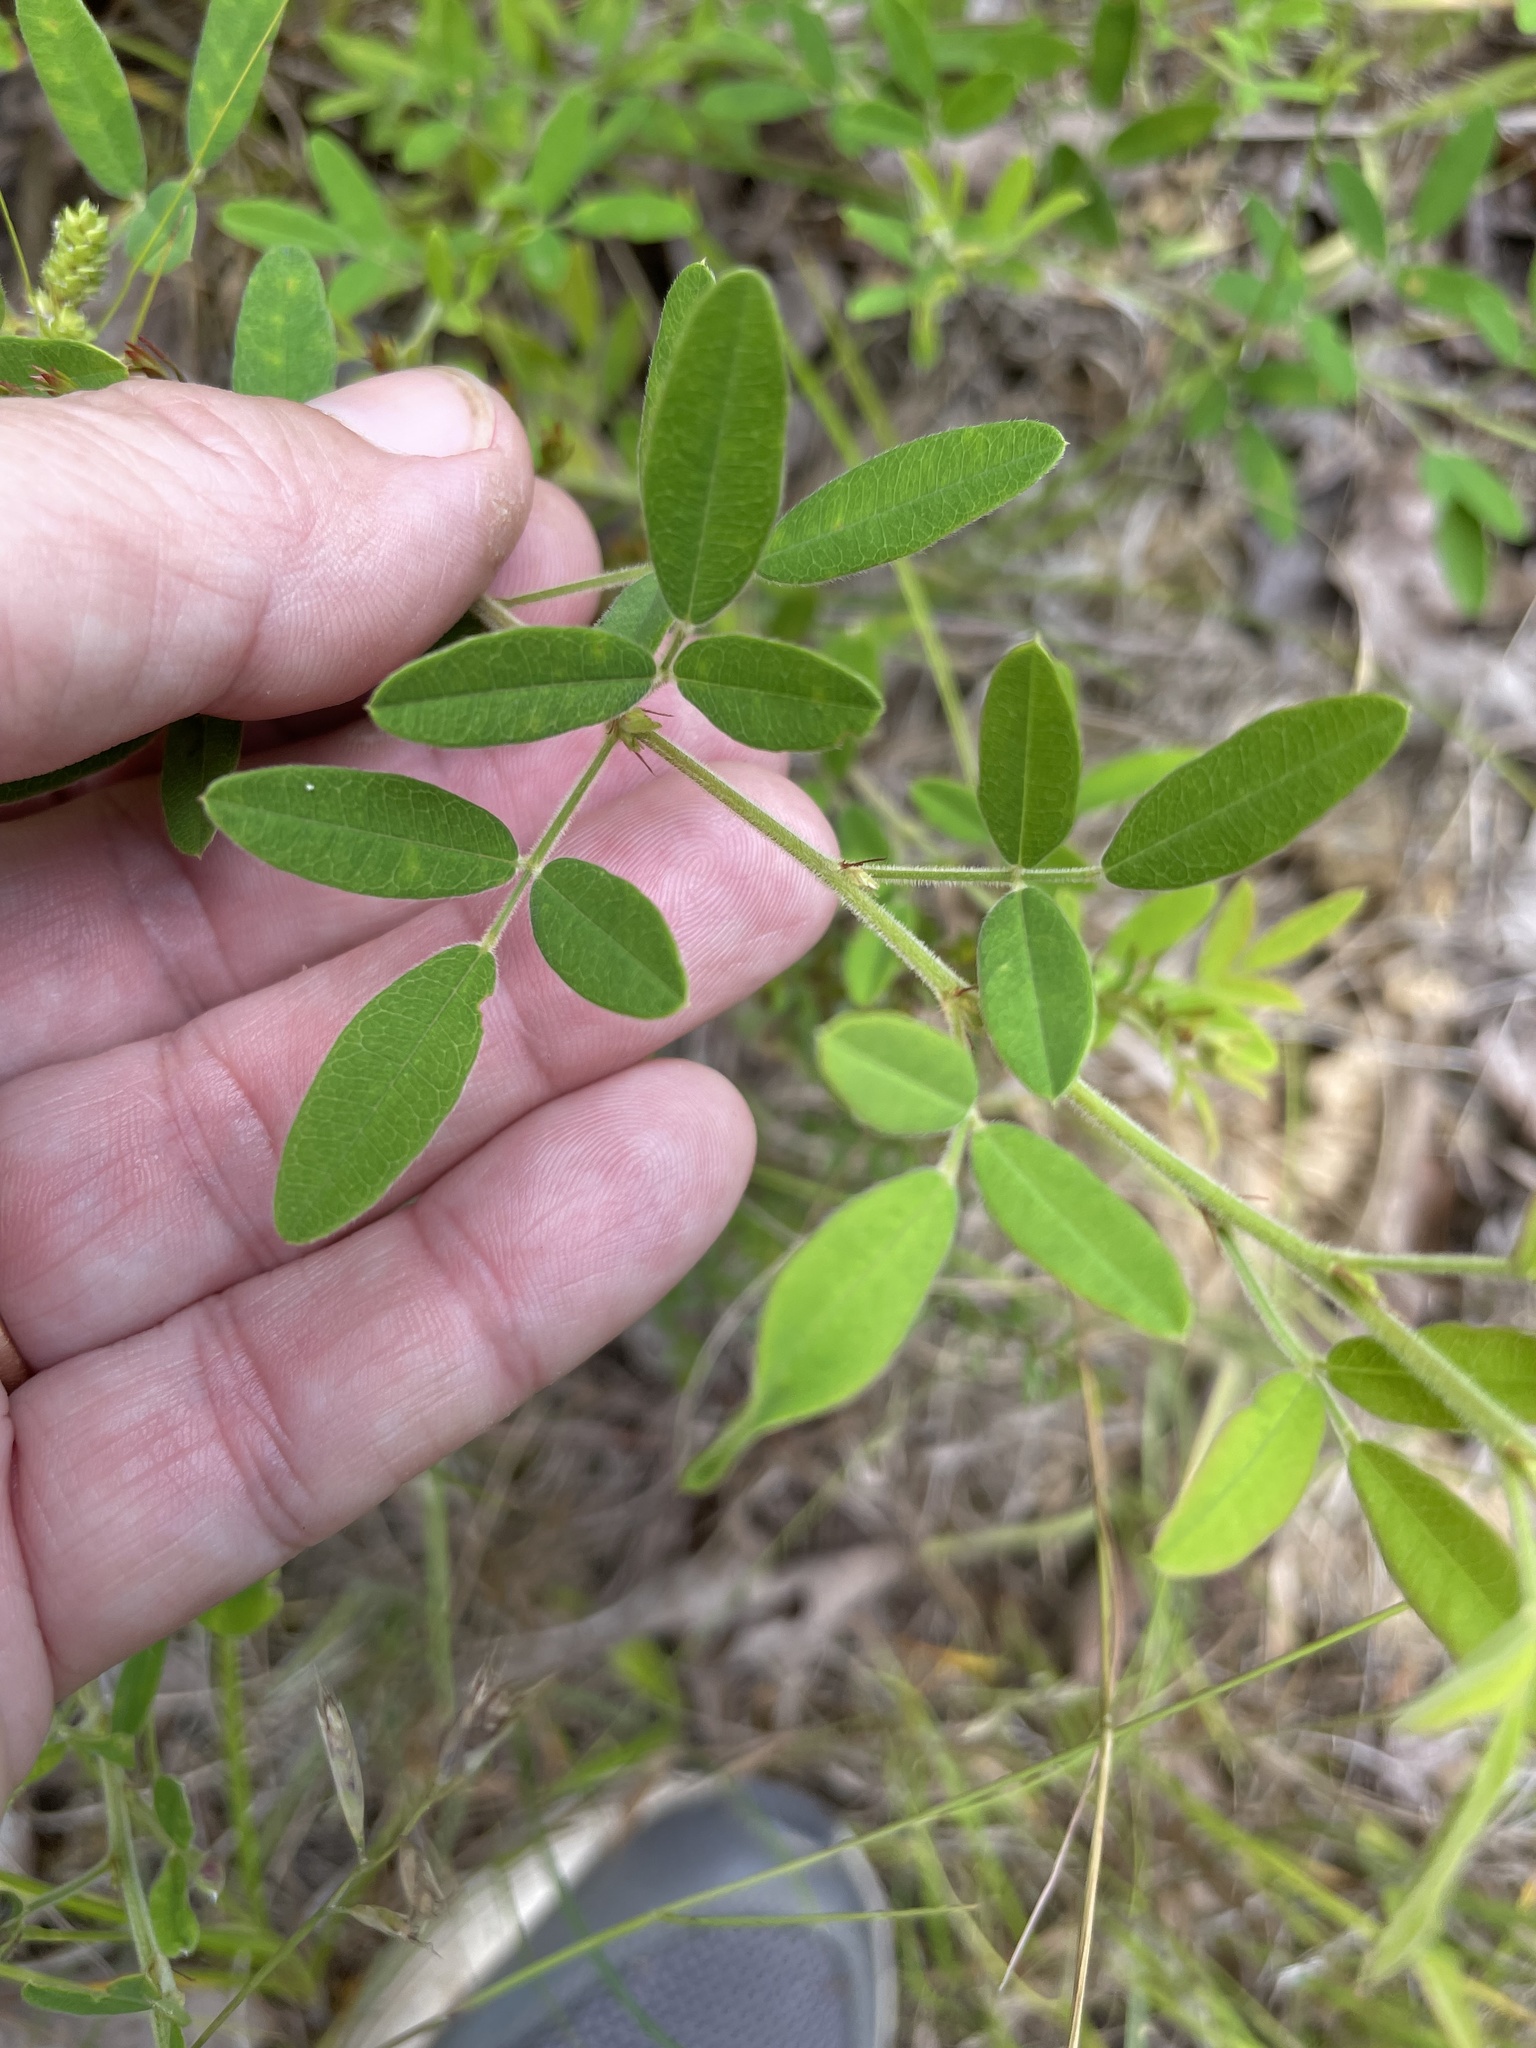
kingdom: Plantae
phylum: Tracheophyta
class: Magnoliopsida
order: Fabales
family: Fabaceae
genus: Lespedeza
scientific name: Lespedeza virginica
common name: Slender bush-clover
